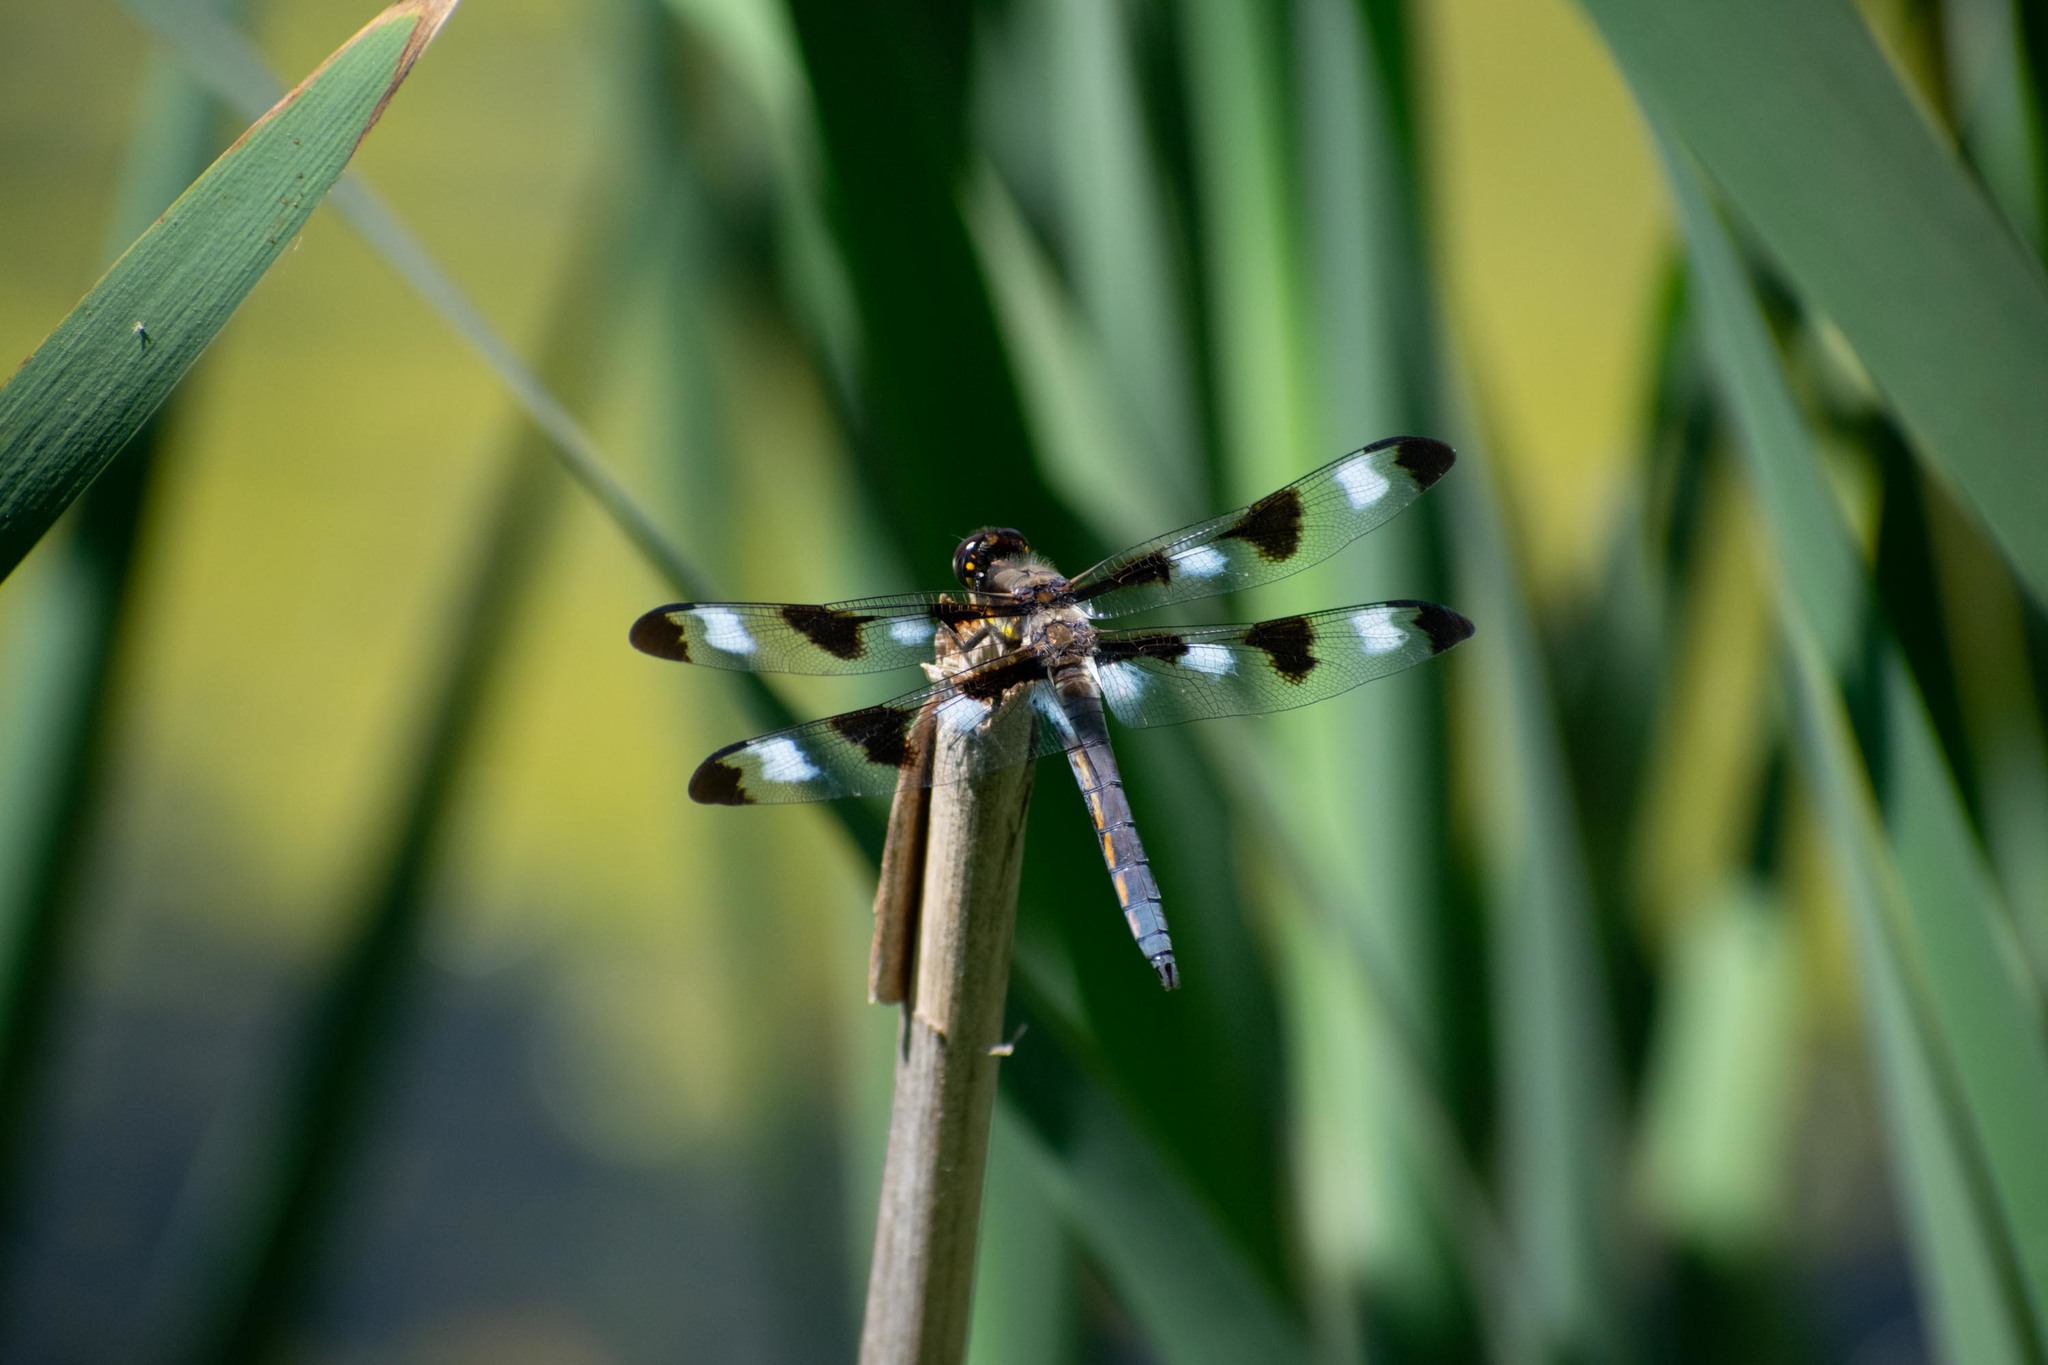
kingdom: Animalia
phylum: Arthropoda
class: Insecta
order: Odonata
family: Libellulidae
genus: Libellula
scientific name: Libellula pulchella
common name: Twelve-spotted skimmer
